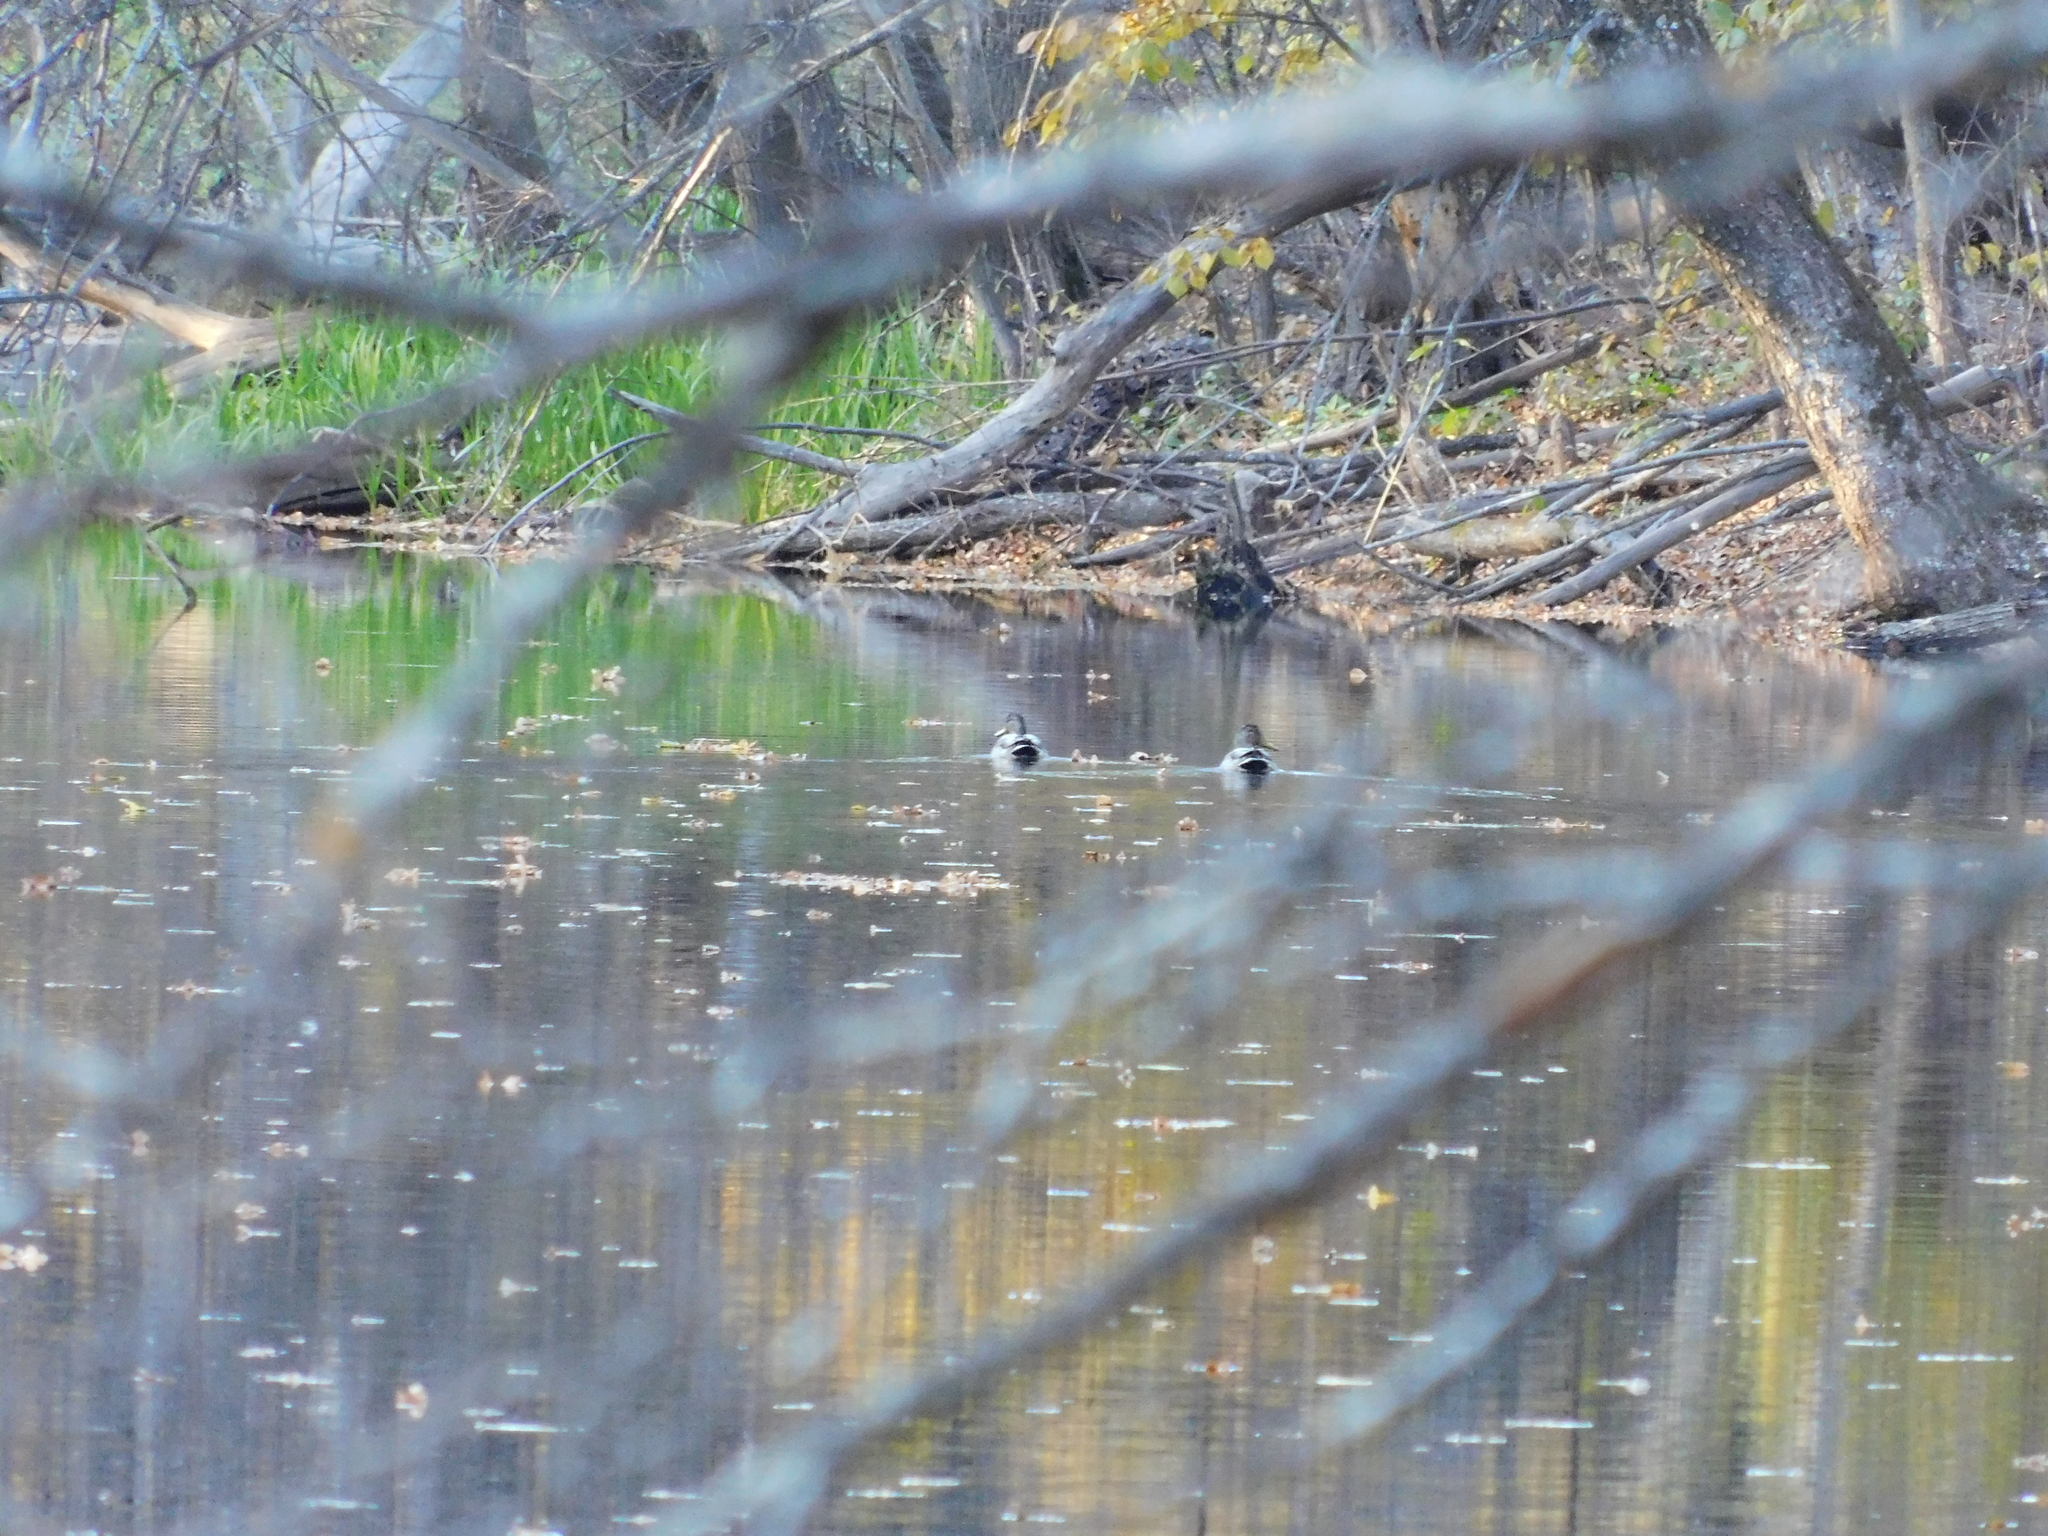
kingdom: Animalia
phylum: Chordata
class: Aves
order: Anseriformes
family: Anatidae
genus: Anas
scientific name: Anas platyrhynchos
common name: Mallard
